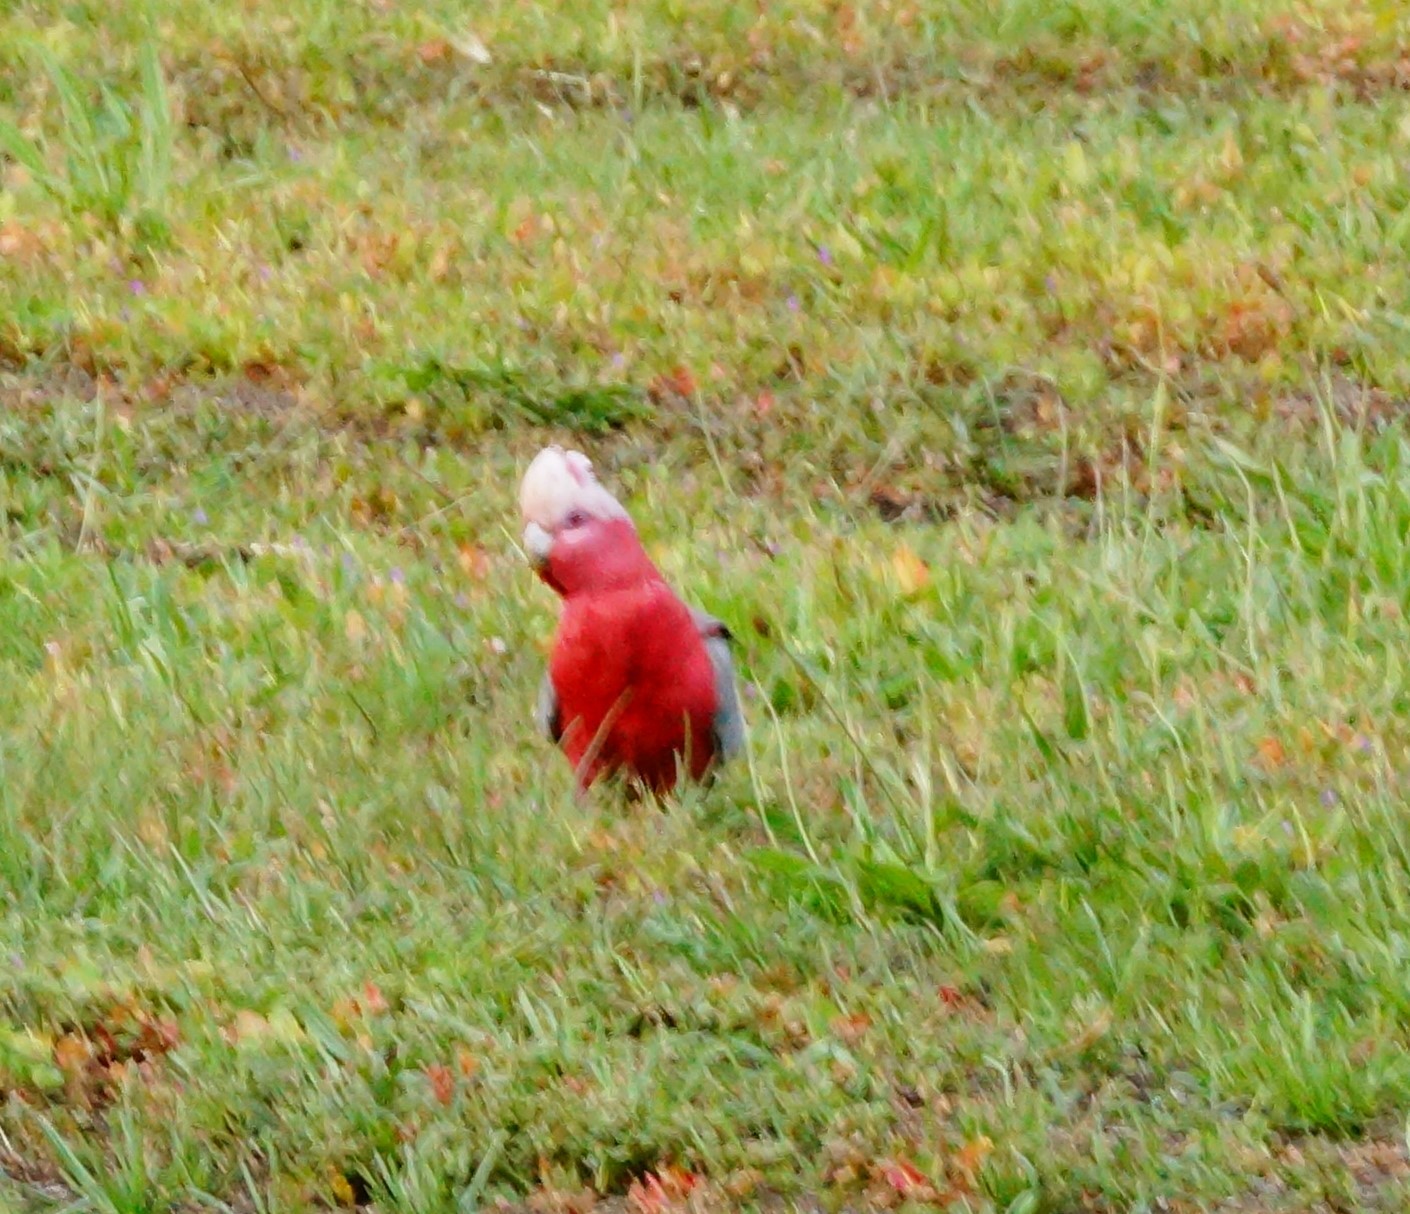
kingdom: Animalia
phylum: Chordata
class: Aves
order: Psittaciformes
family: Psittacidae
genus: Eolophus
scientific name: Eolophus roseicapilla
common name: Galah
